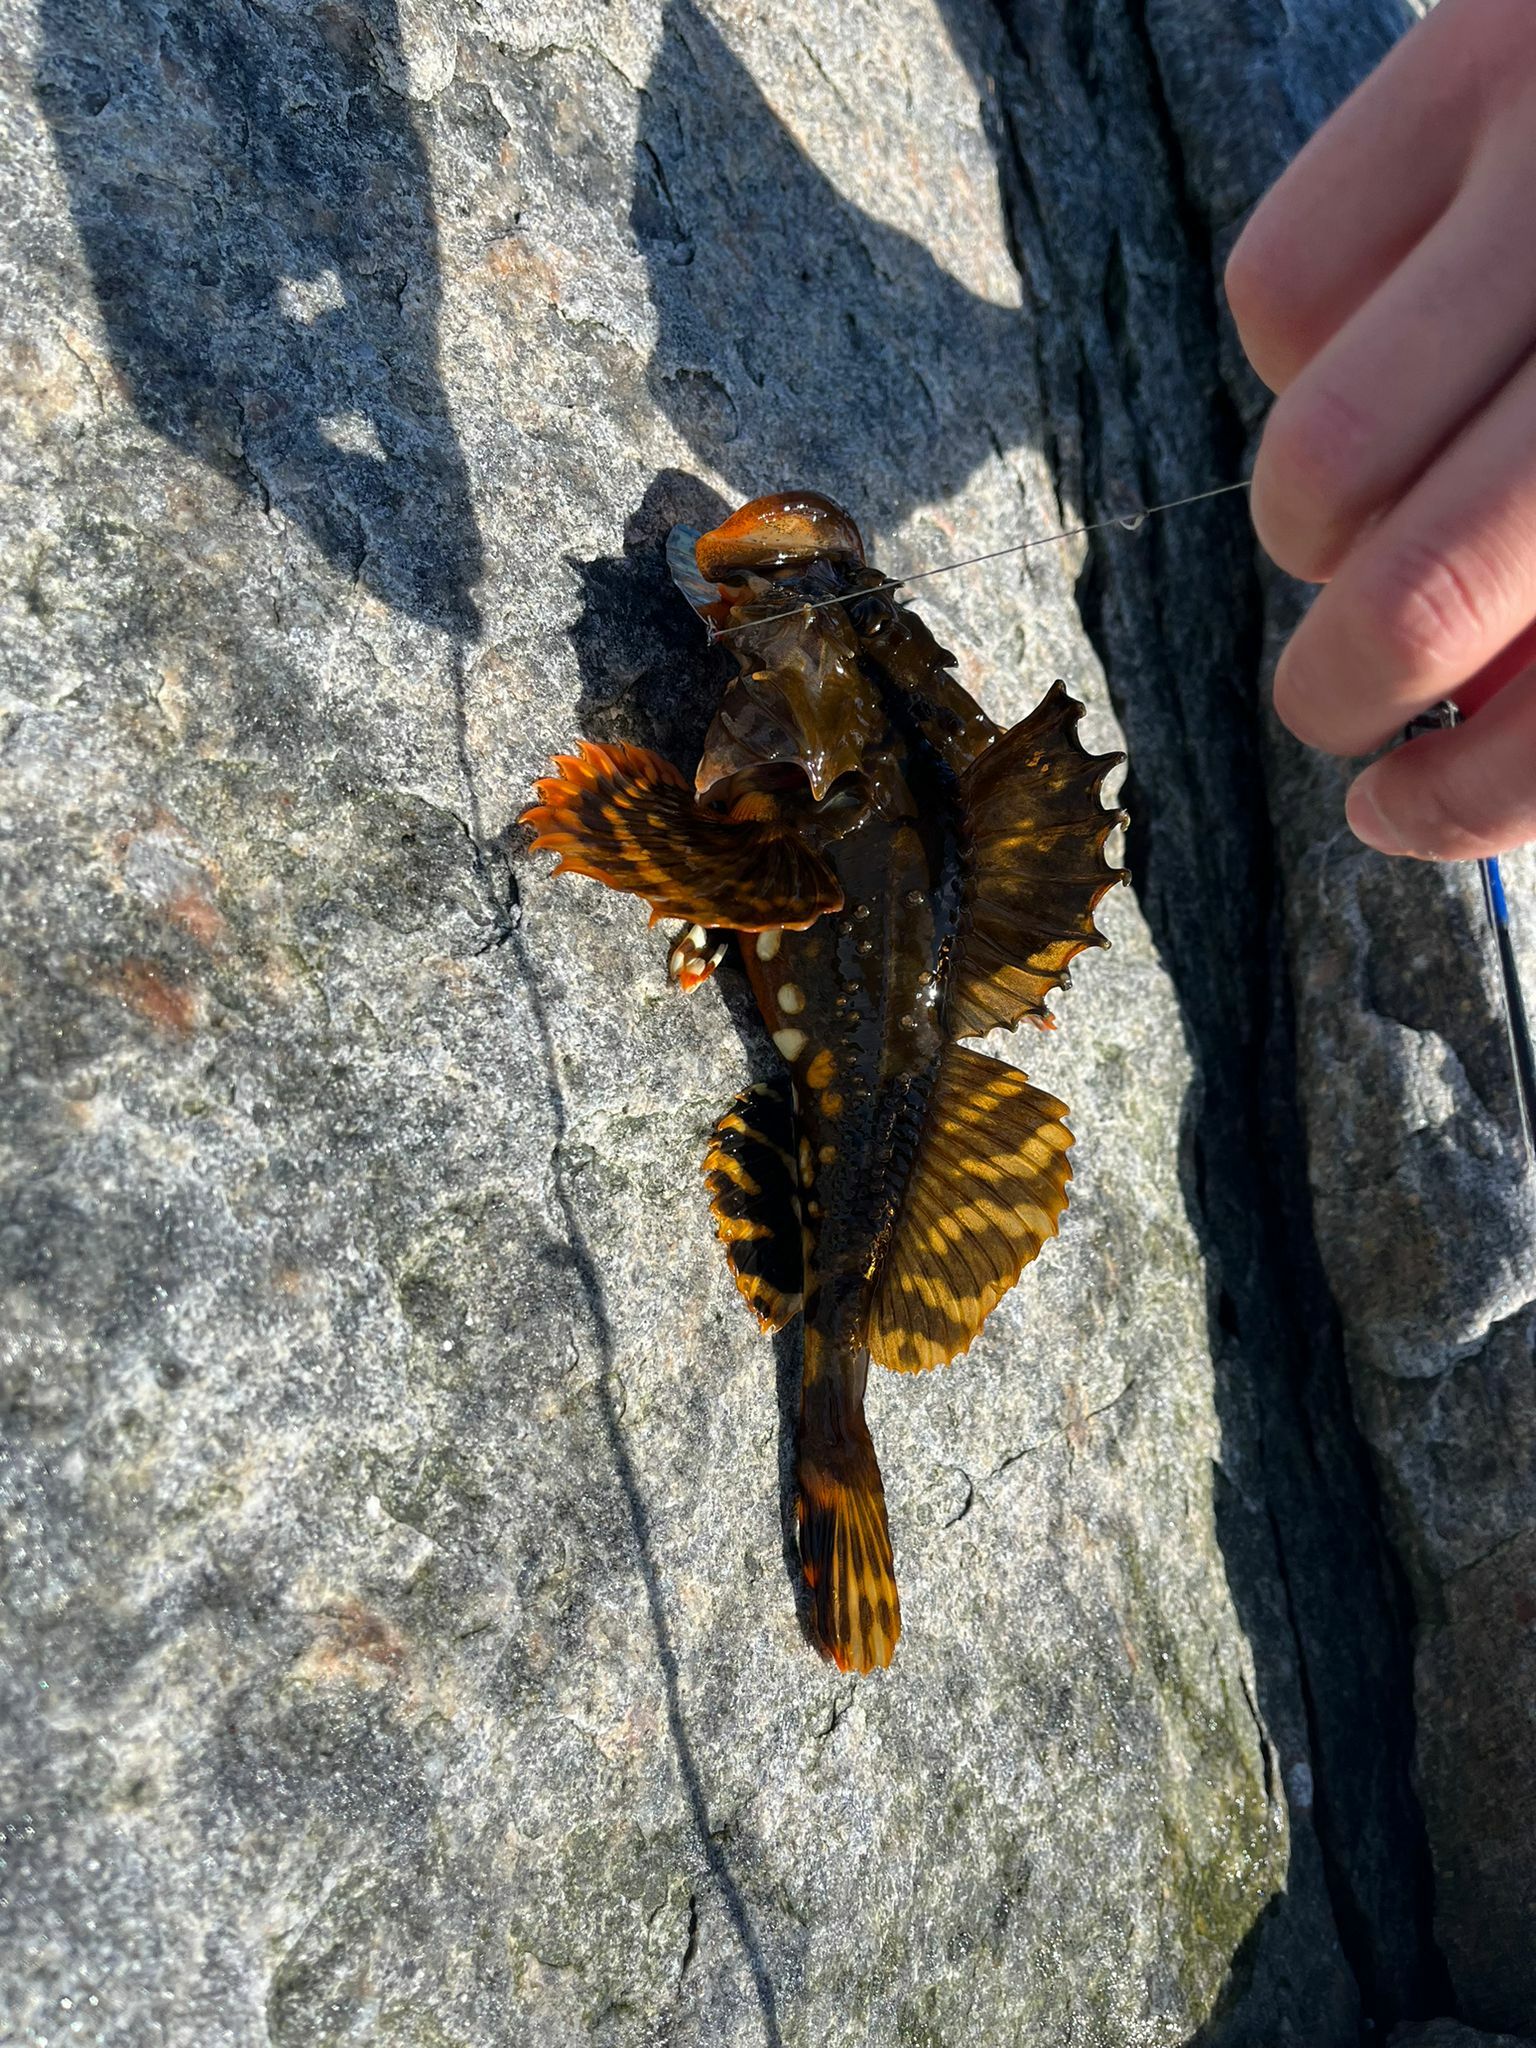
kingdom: Animalia
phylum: Chordata
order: Scorpaeniformes
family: Cottidae
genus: Myoxocephalus
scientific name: Myoxocephalus scorpius
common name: Shorthorn sculpin
